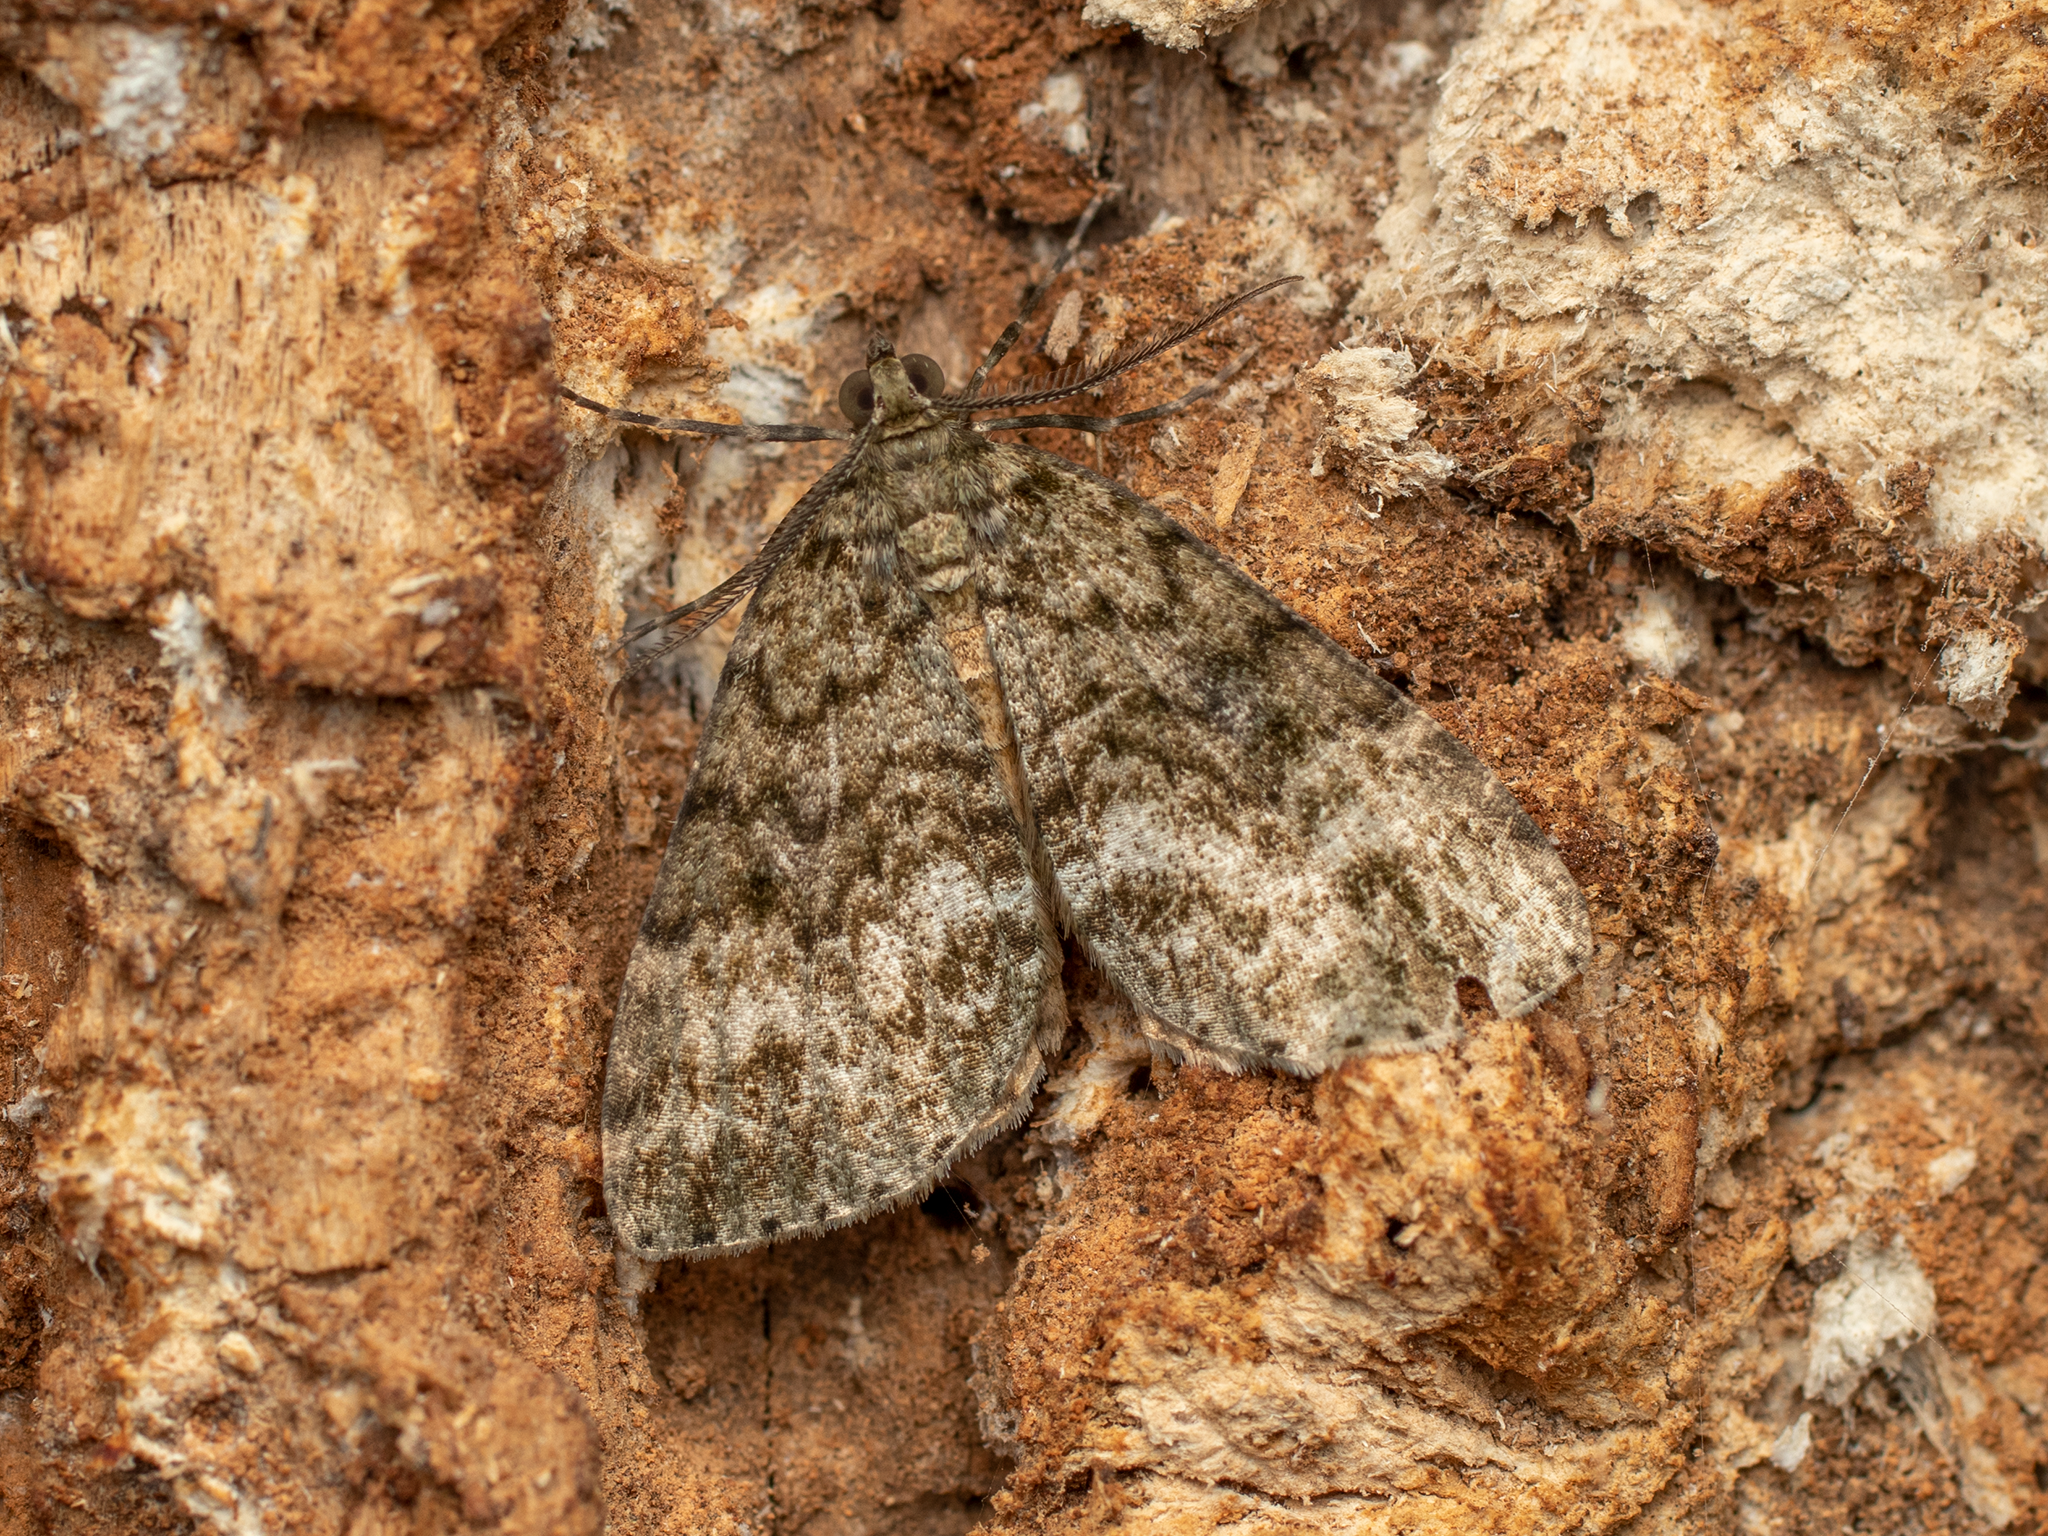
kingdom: Animalia
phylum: Arthropoda
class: Insecta
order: Lepidoptera
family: Geometridae
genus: Pseudocoremia
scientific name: Pseudocoremia indistincta
